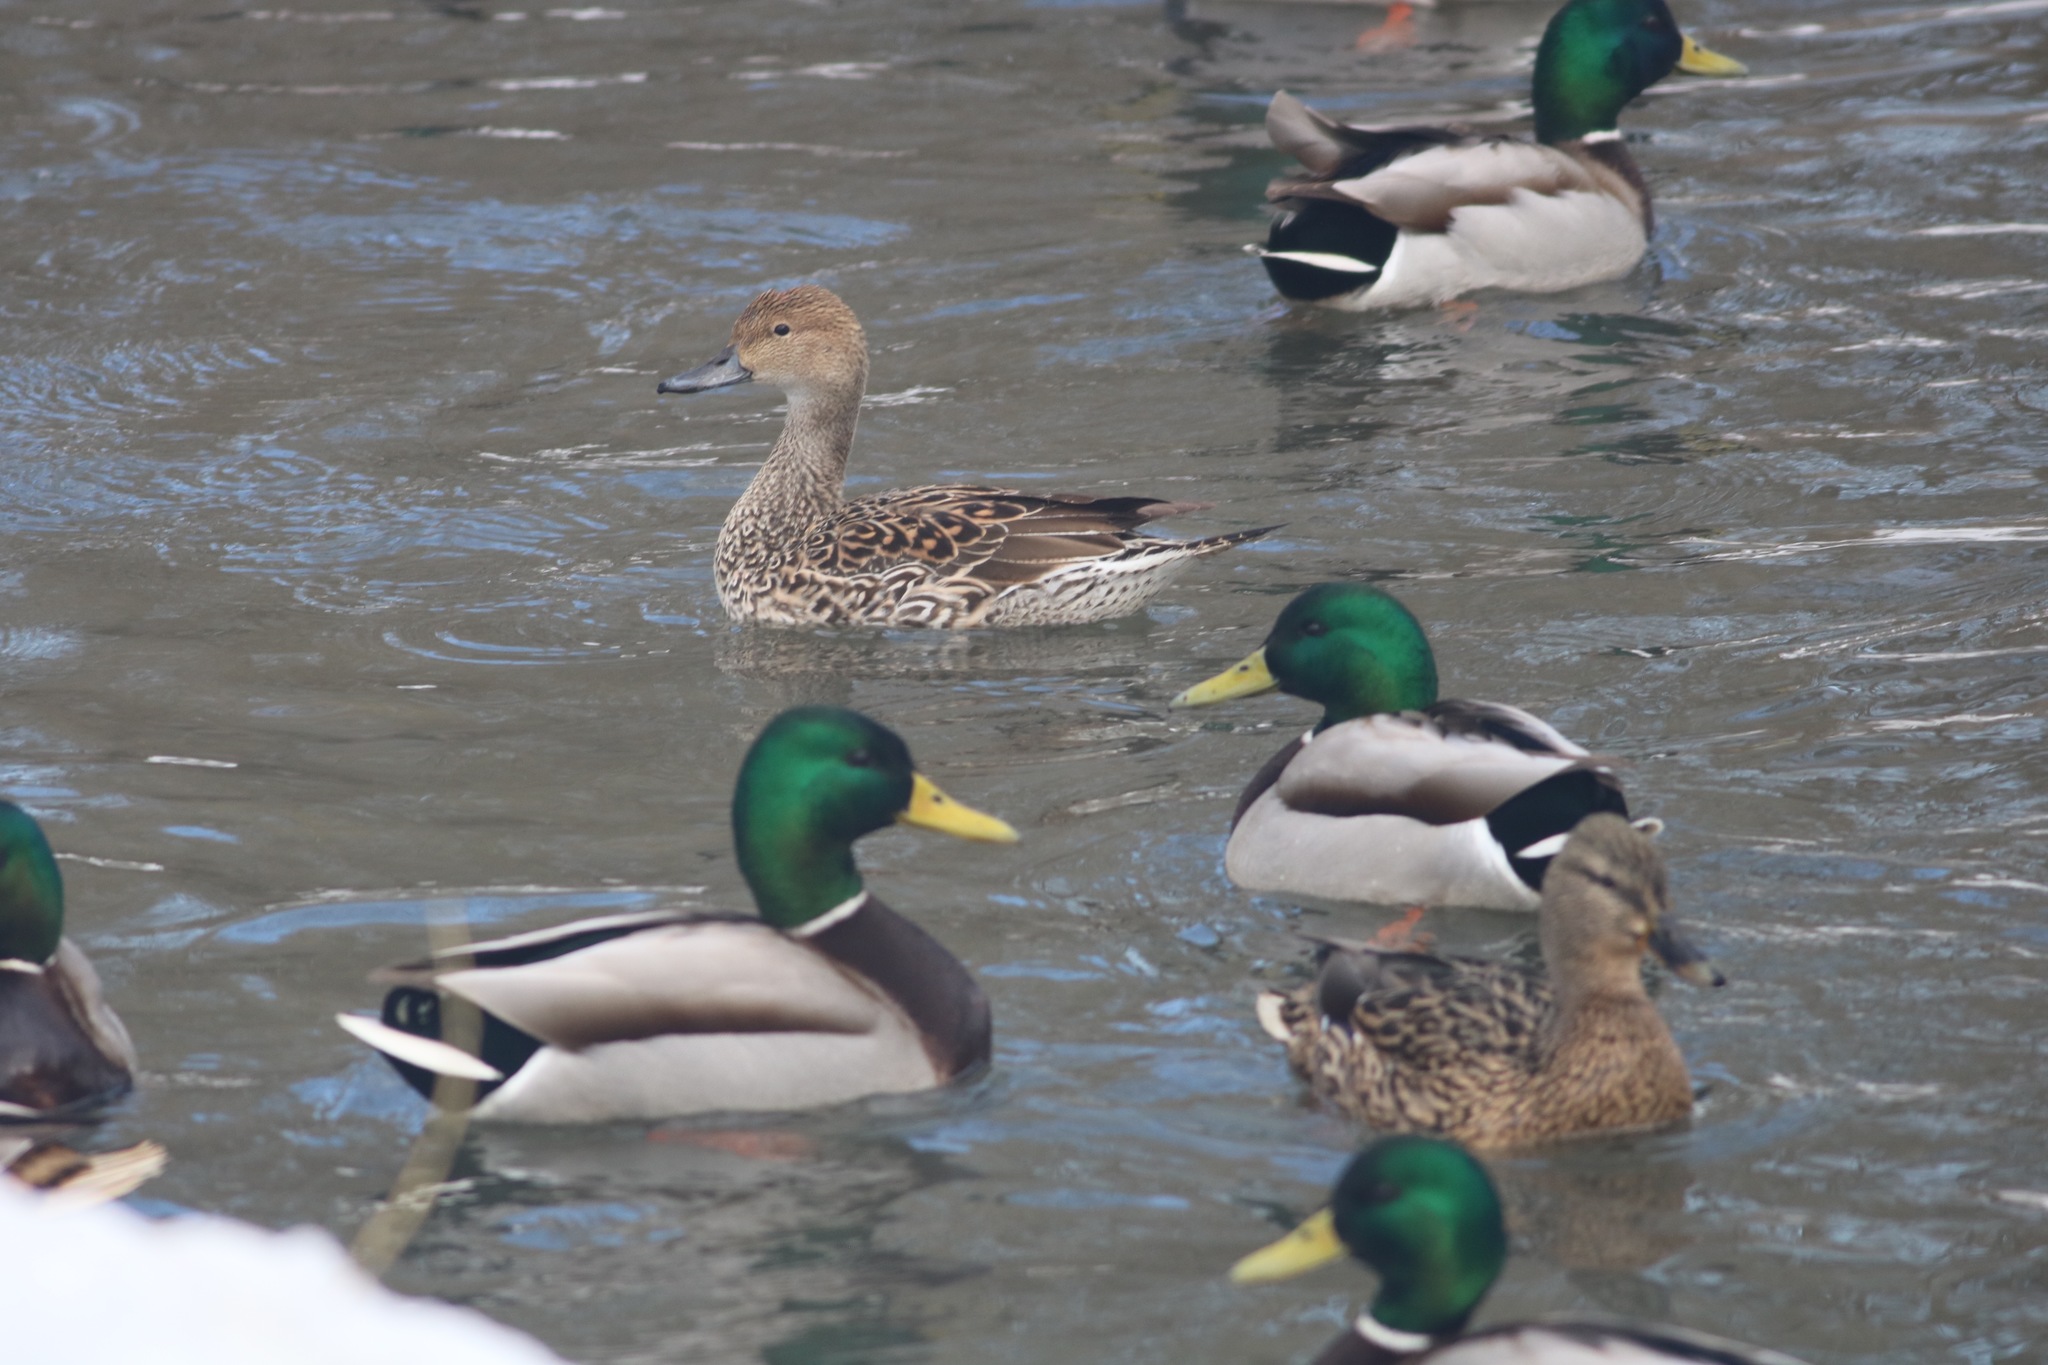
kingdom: Animalia
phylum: Chordata
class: Aves
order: Anseriformes
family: Anatidae
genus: Anas
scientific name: Anas acuta
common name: Northern pintail
